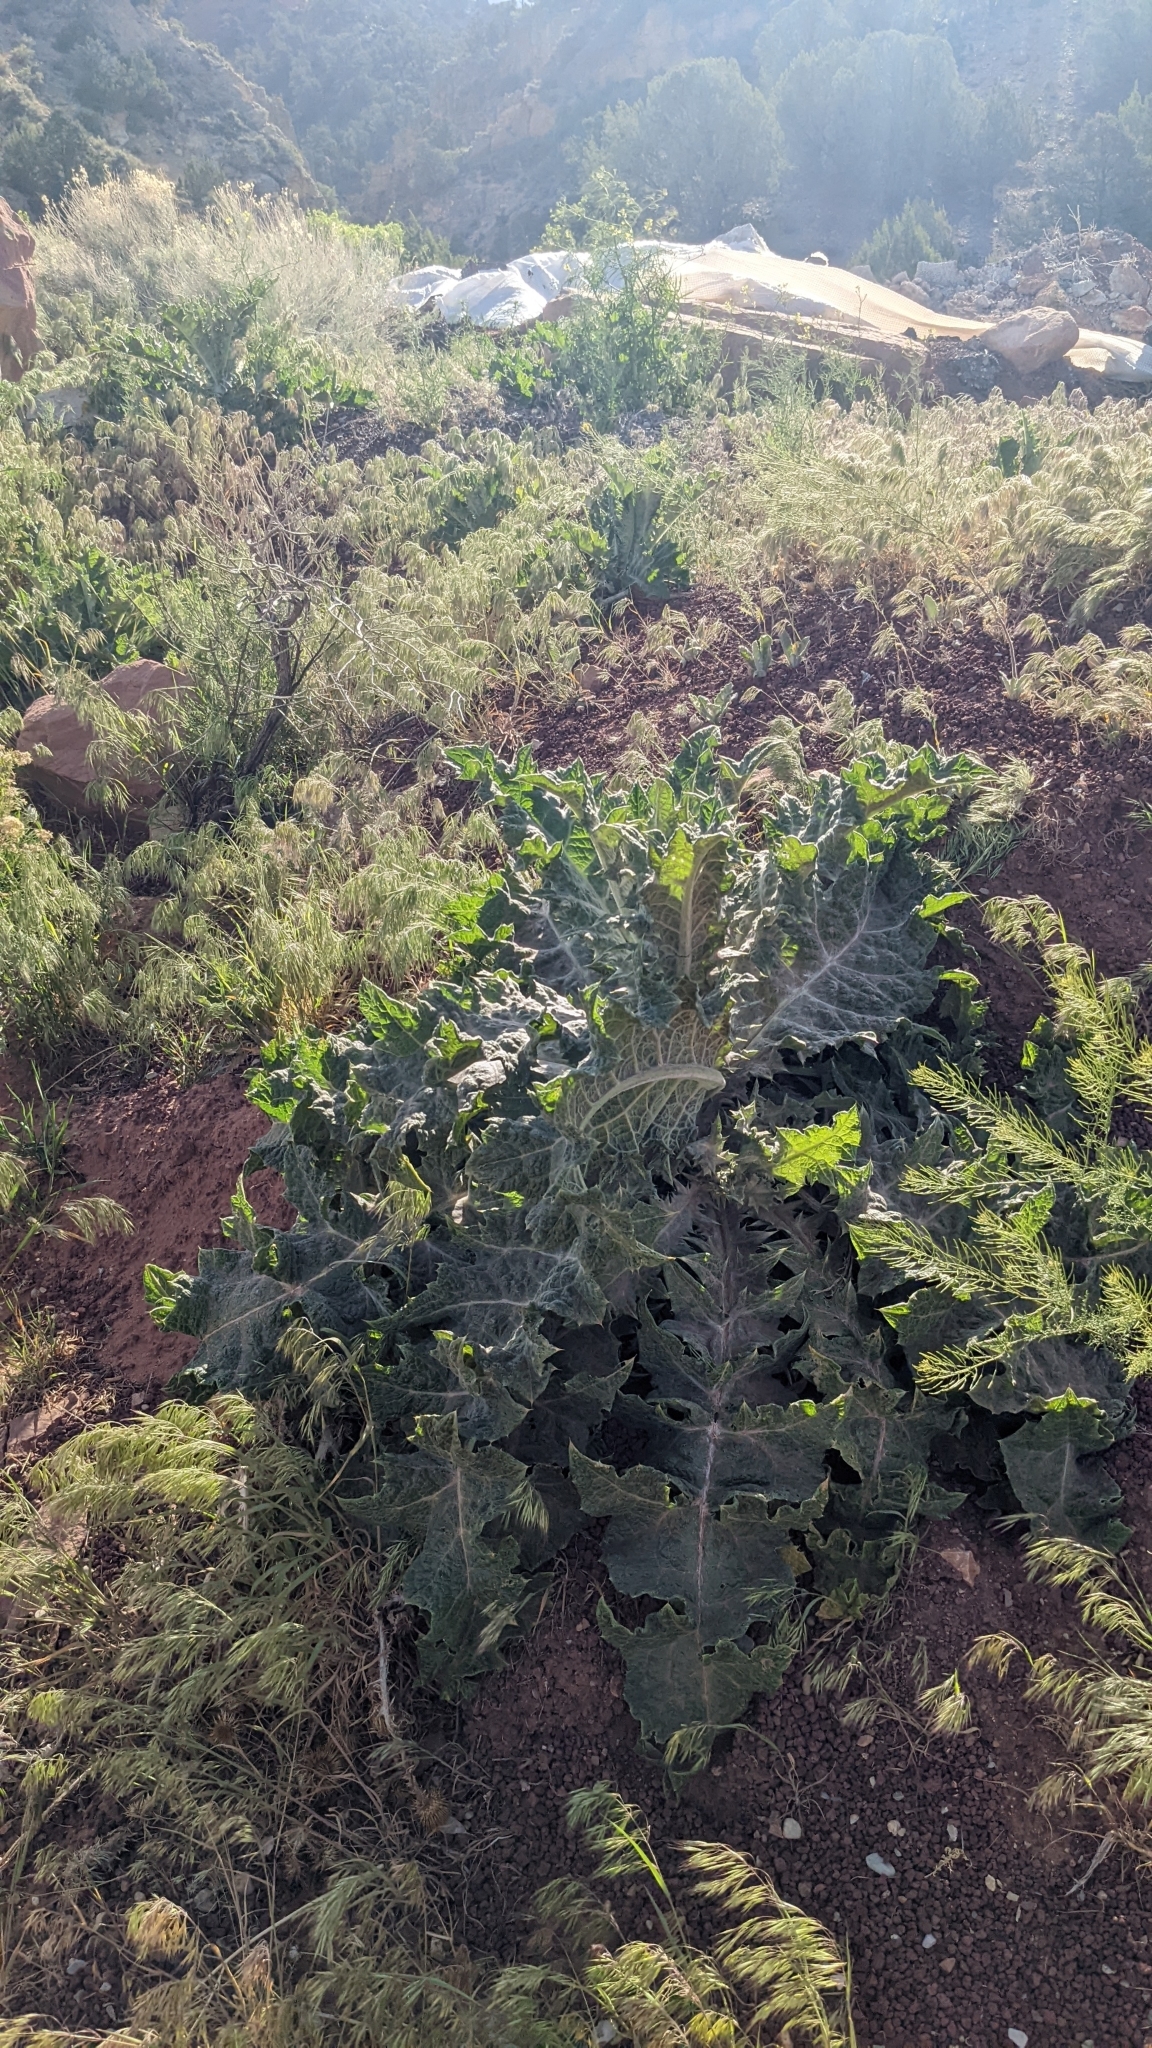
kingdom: Plantae
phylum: Tracheophyta
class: Magnoliopsida
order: Asterales
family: Asteraceae
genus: Onopordum
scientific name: Onopordum acanthium
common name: Scotch thistle
